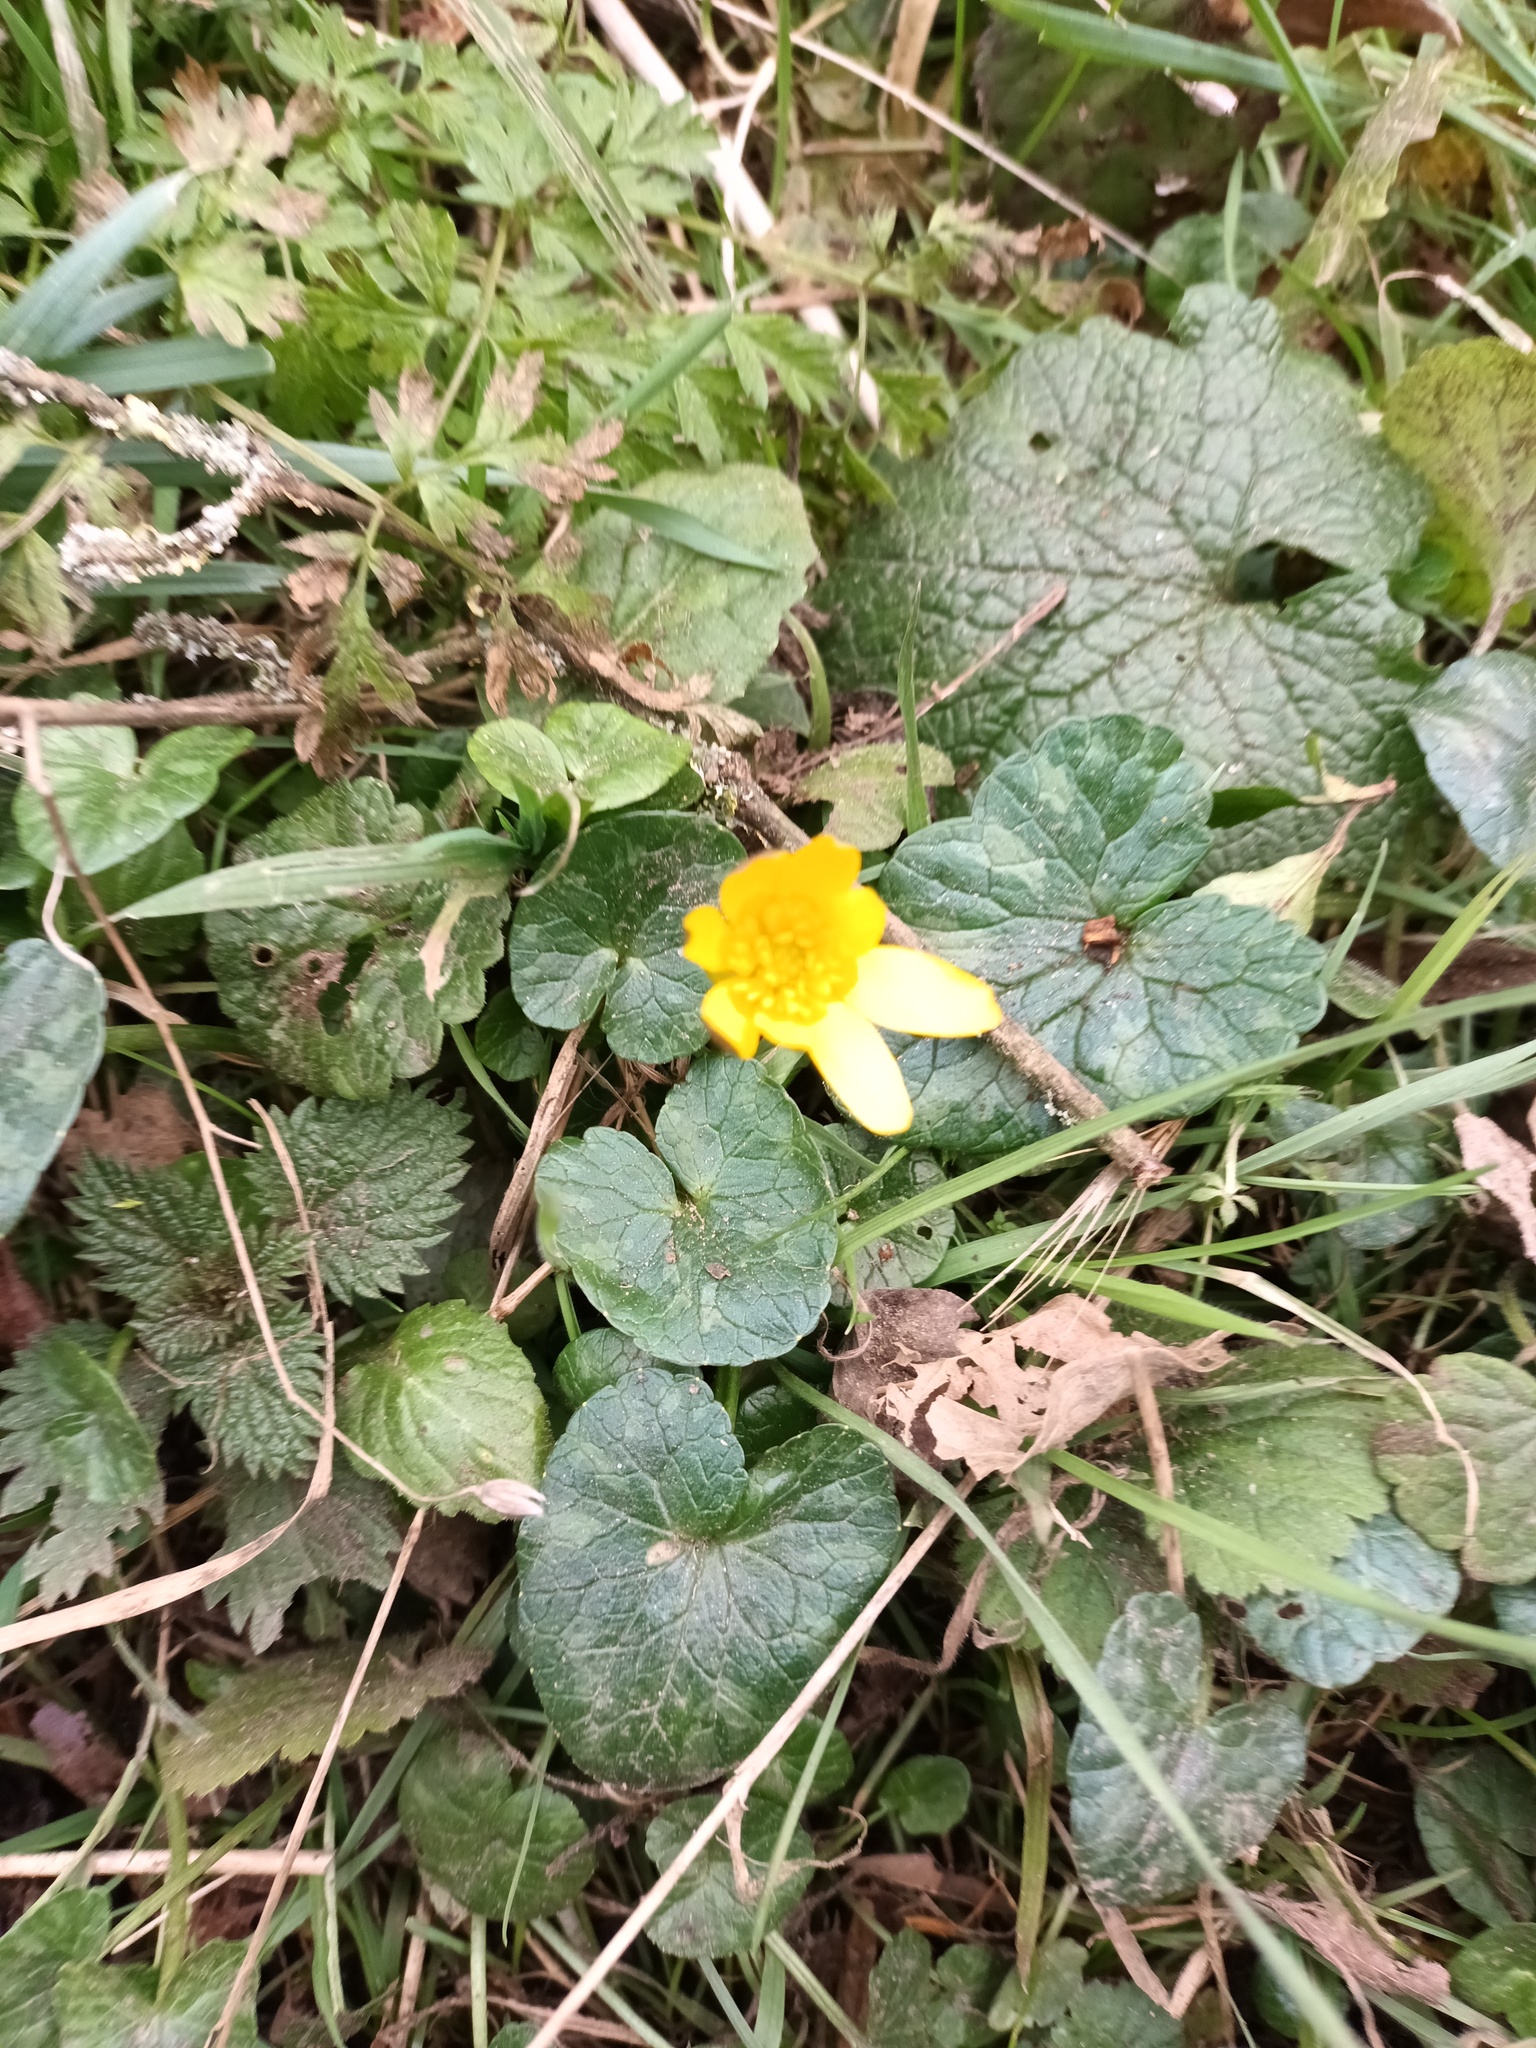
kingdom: Plantae
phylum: Tracheophyta
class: Magnoliopsida
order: Ranunculales
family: Ranunculaceae
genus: Ficaria
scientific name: Ficaria verna
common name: Lesser celandine
